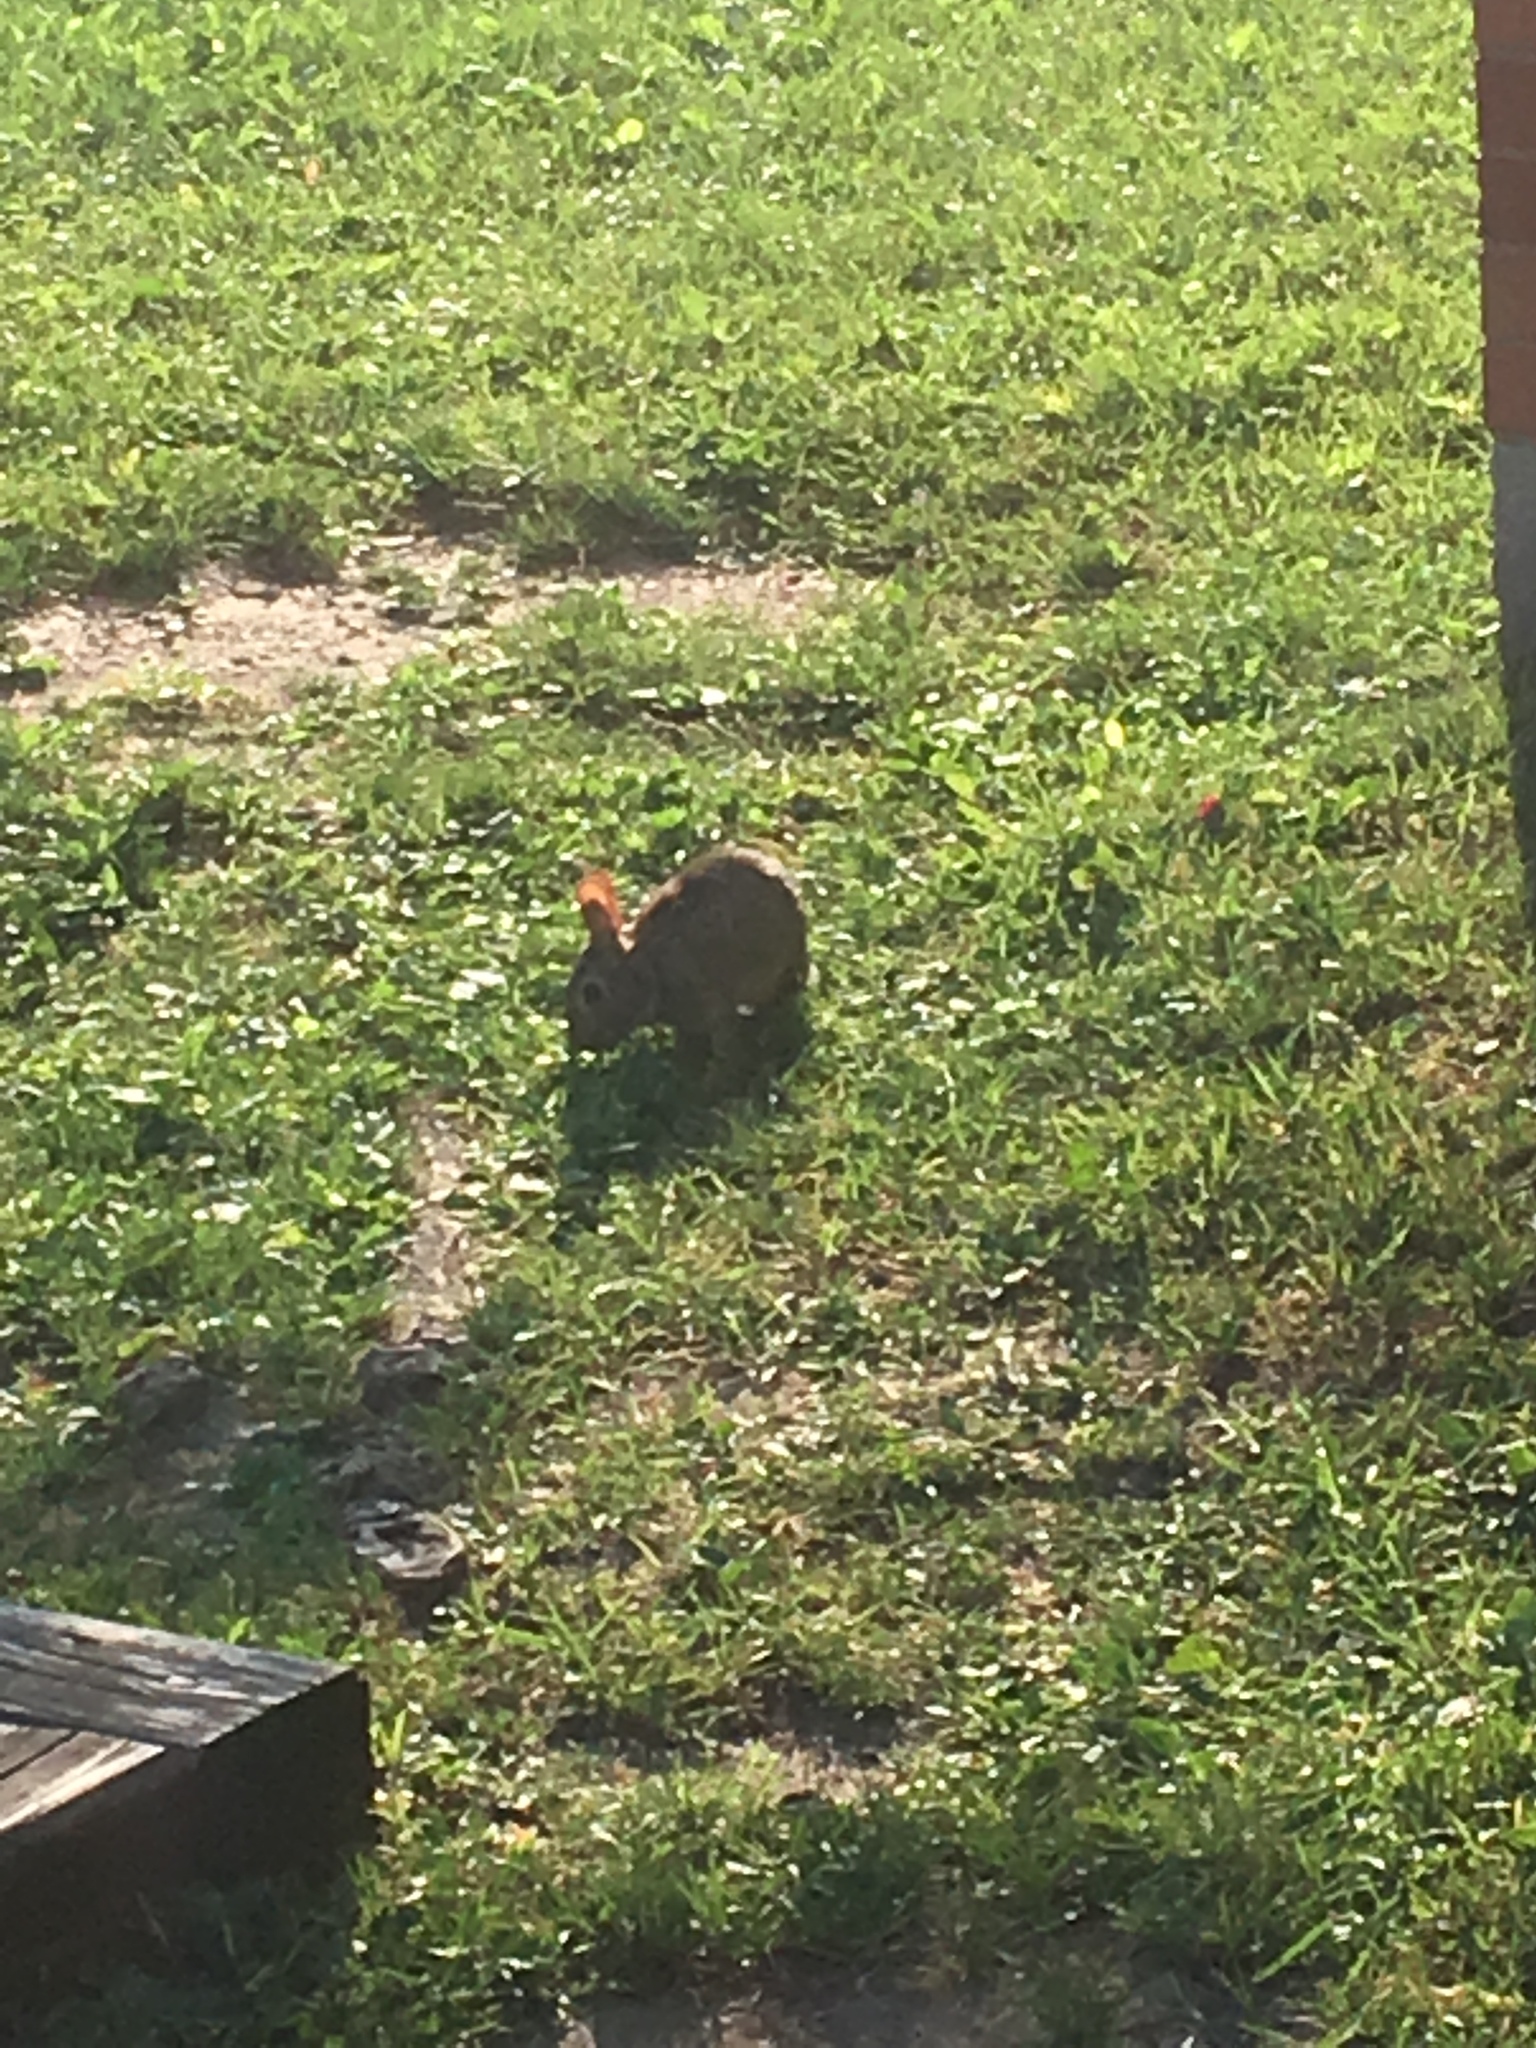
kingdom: Animalia
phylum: Chordata
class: Mammalia
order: Lagomorpha
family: Leporidae
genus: Sylvilagus
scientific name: Sylvilagus floridanus
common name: Eastern cottontail
